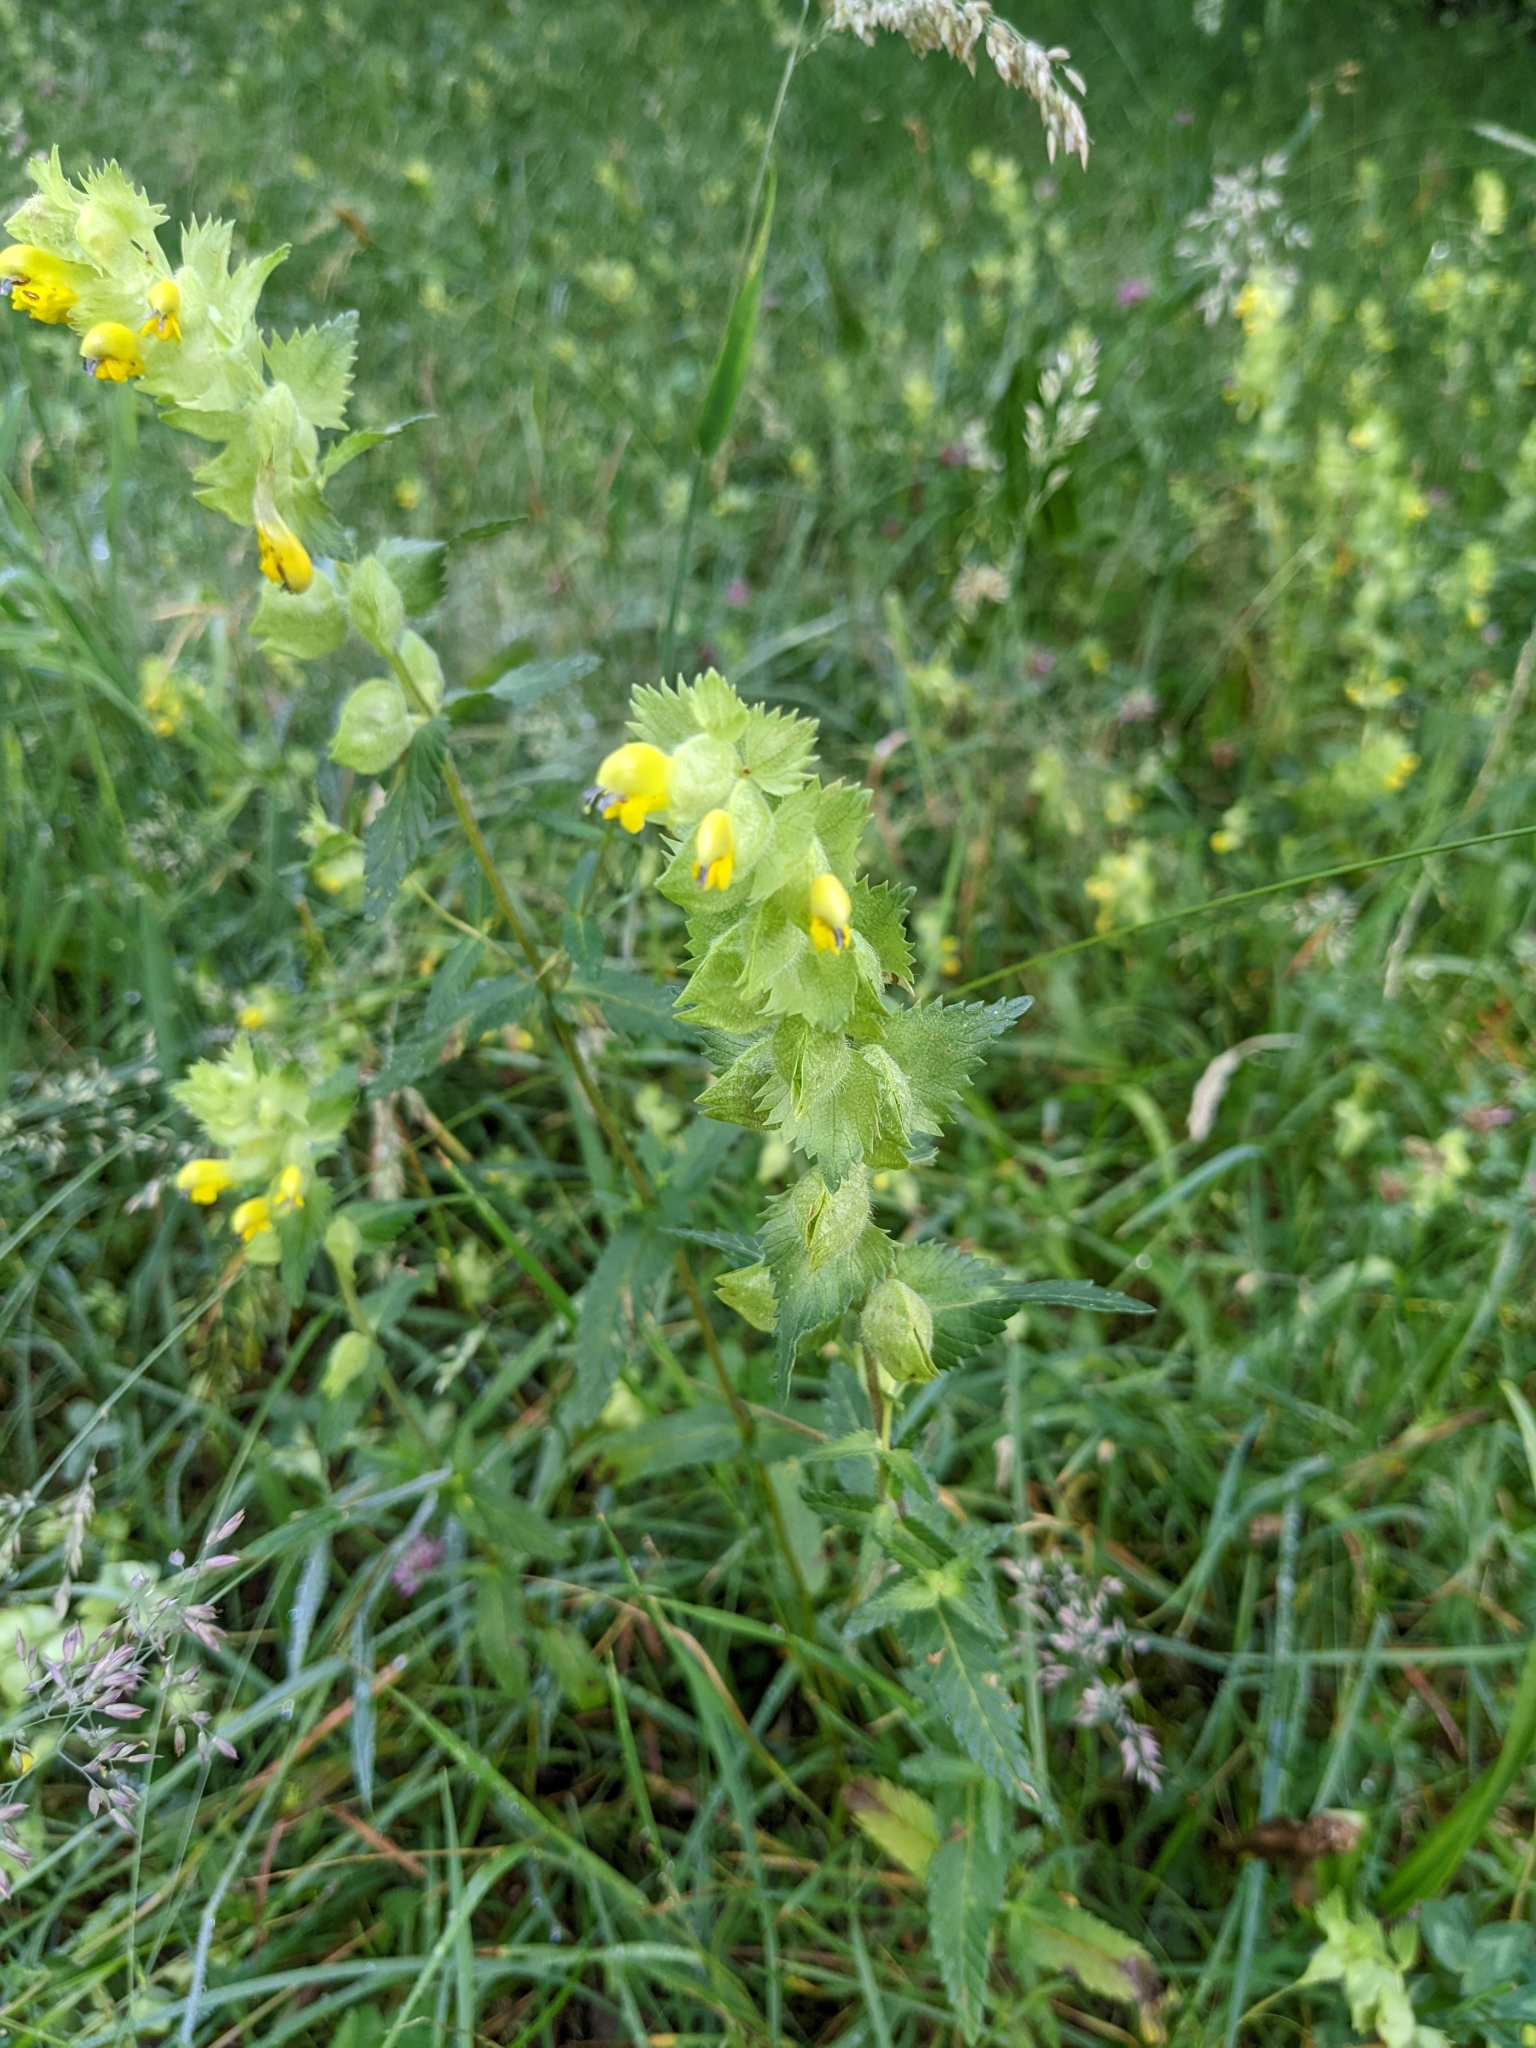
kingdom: Plantae
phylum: Tracheophyta
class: Magnoliopsida
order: Lamiales
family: Orobanchaceae
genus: Rhinanthus
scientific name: Rhinanthus alectorolophus
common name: Greater yellow-rattle
